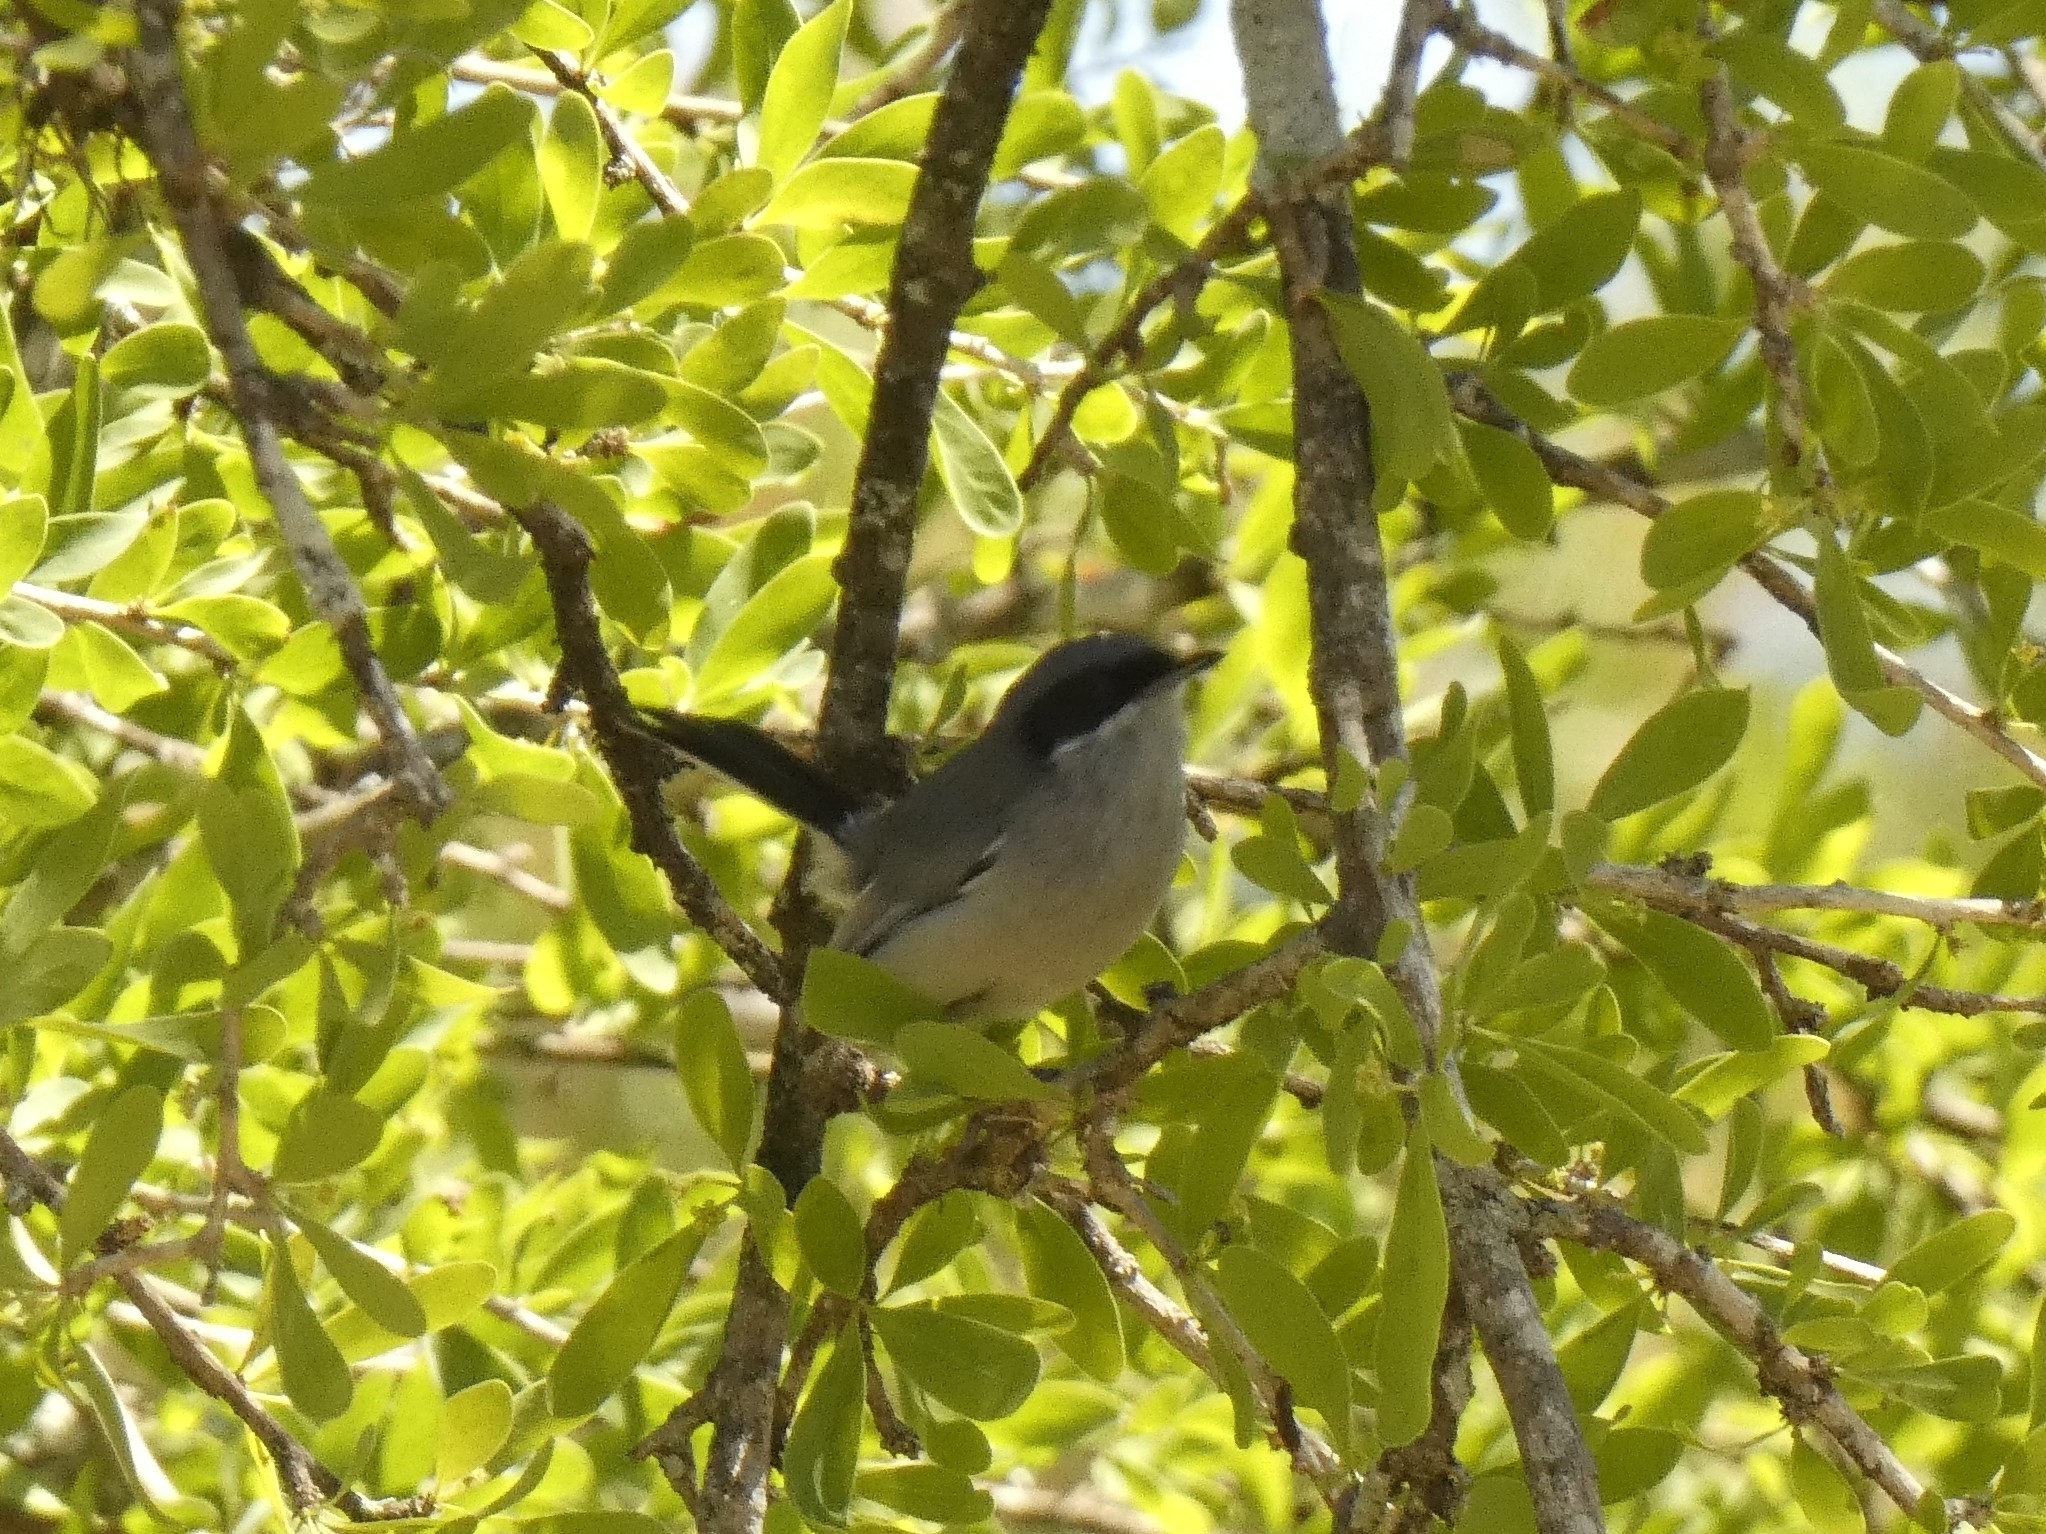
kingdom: Animalia
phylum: Chordata
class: Aves
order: Passeriformes
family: Polioptilidae
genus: Polioptila
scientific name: Polioptila dumicola
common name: Masked gnatcatcher
